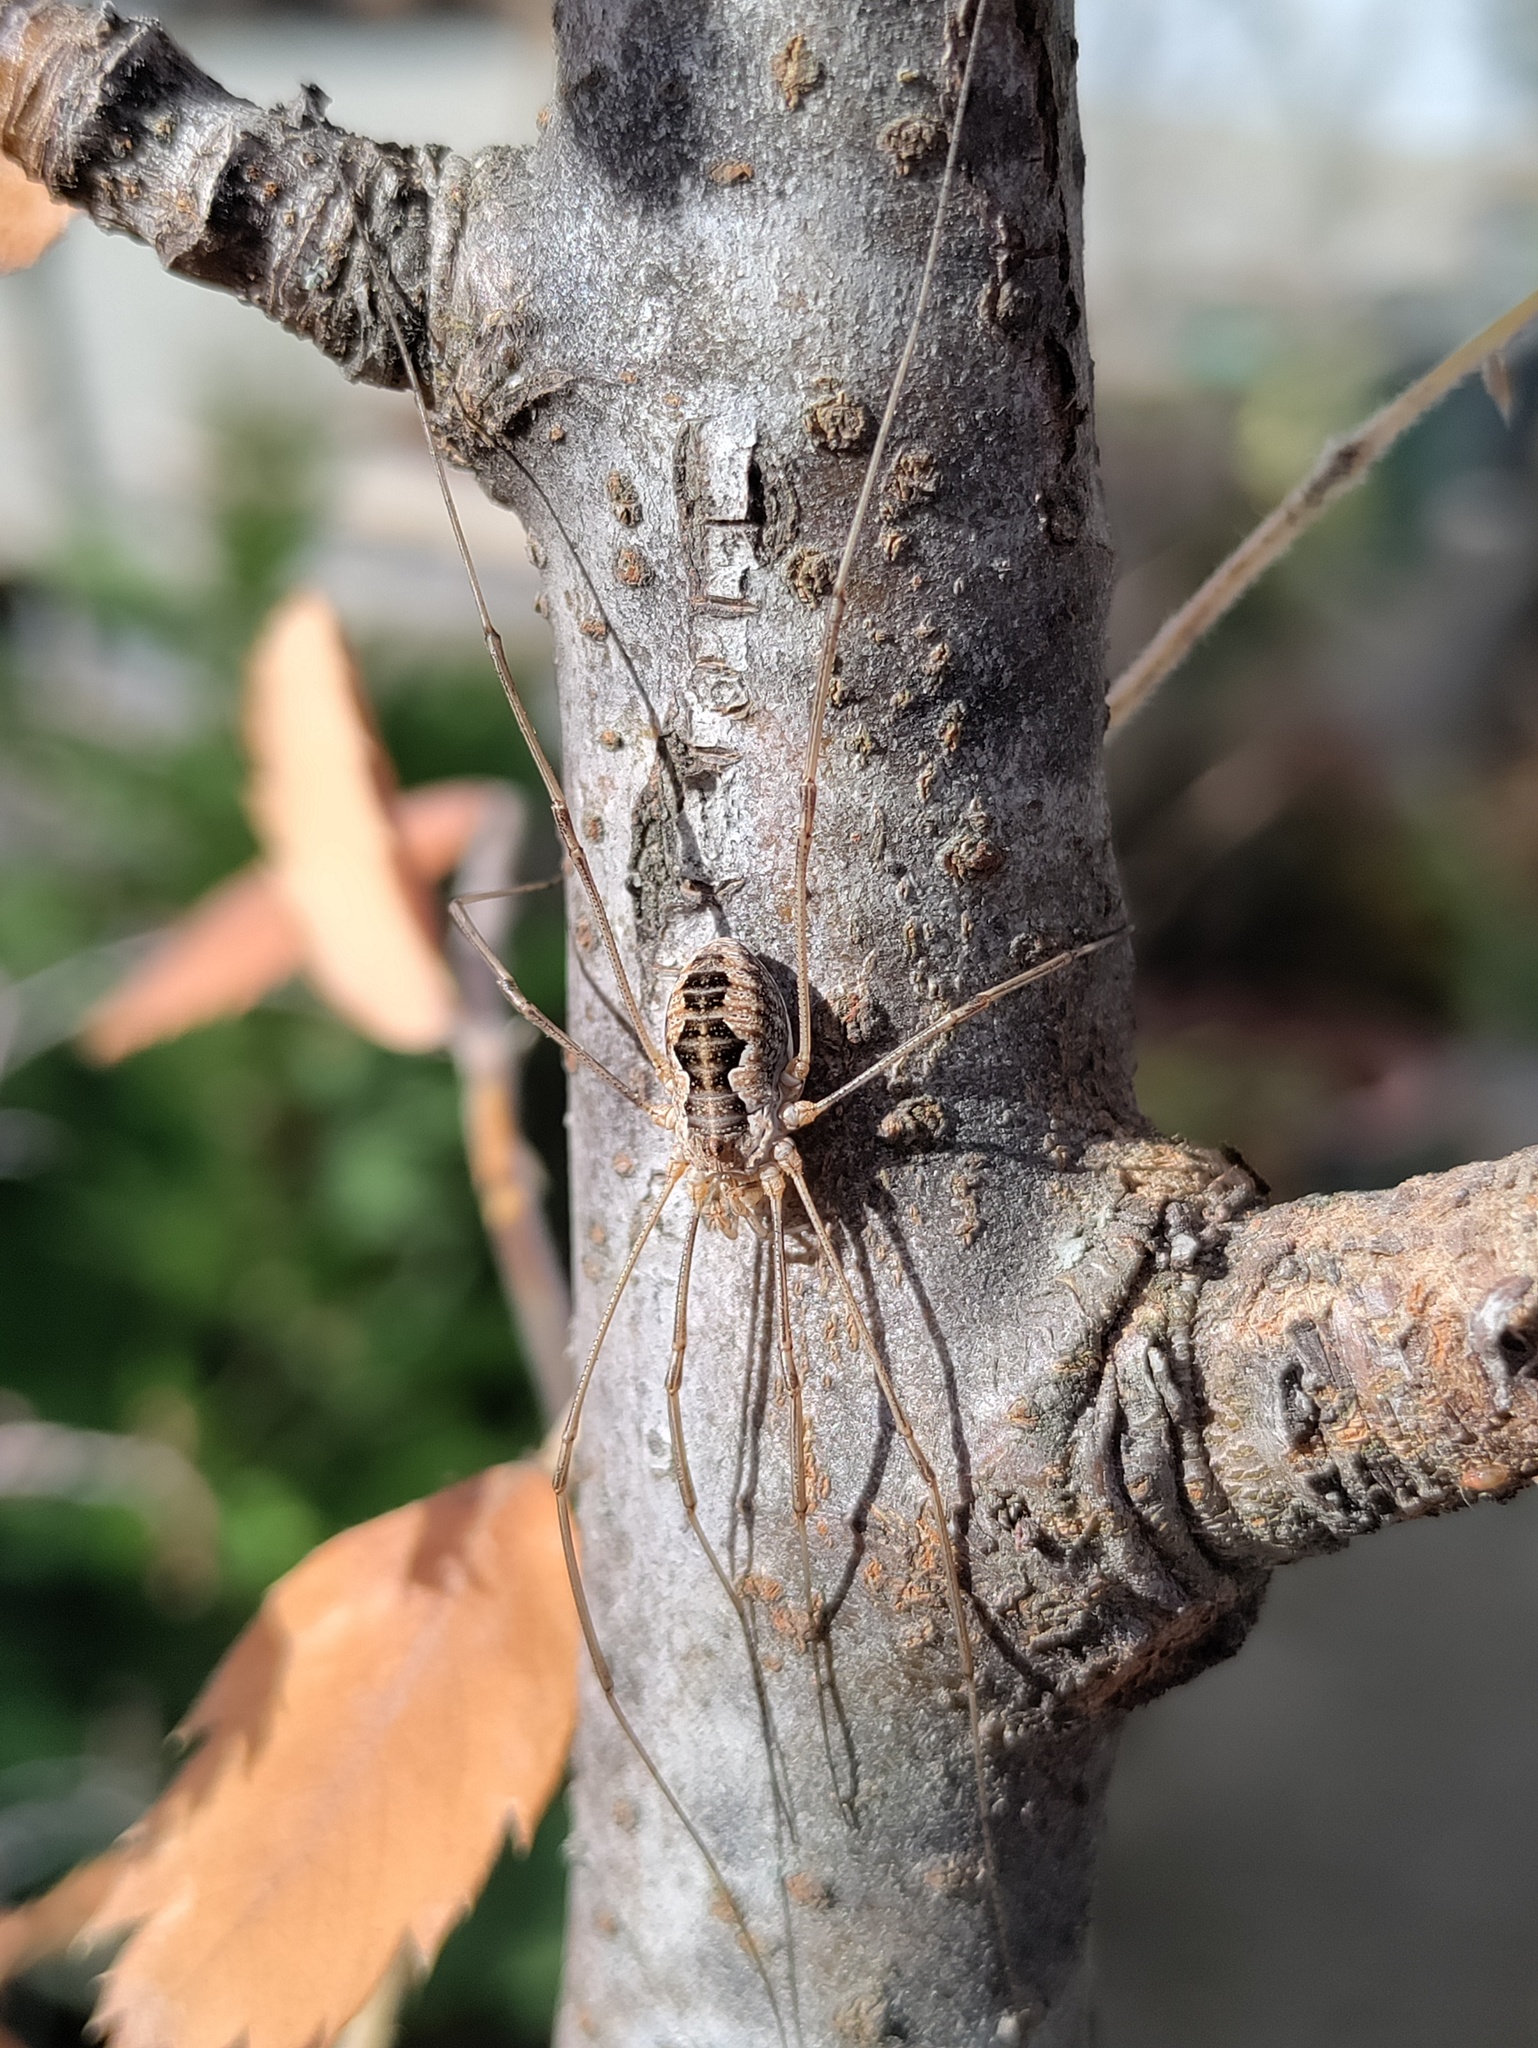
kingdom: Animalia
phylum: Arthropoda
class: Arachnida
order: Opiliones
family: Phalangiidae
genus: Phalangium
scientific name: Phalangium opilio
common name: Daddy longleg
